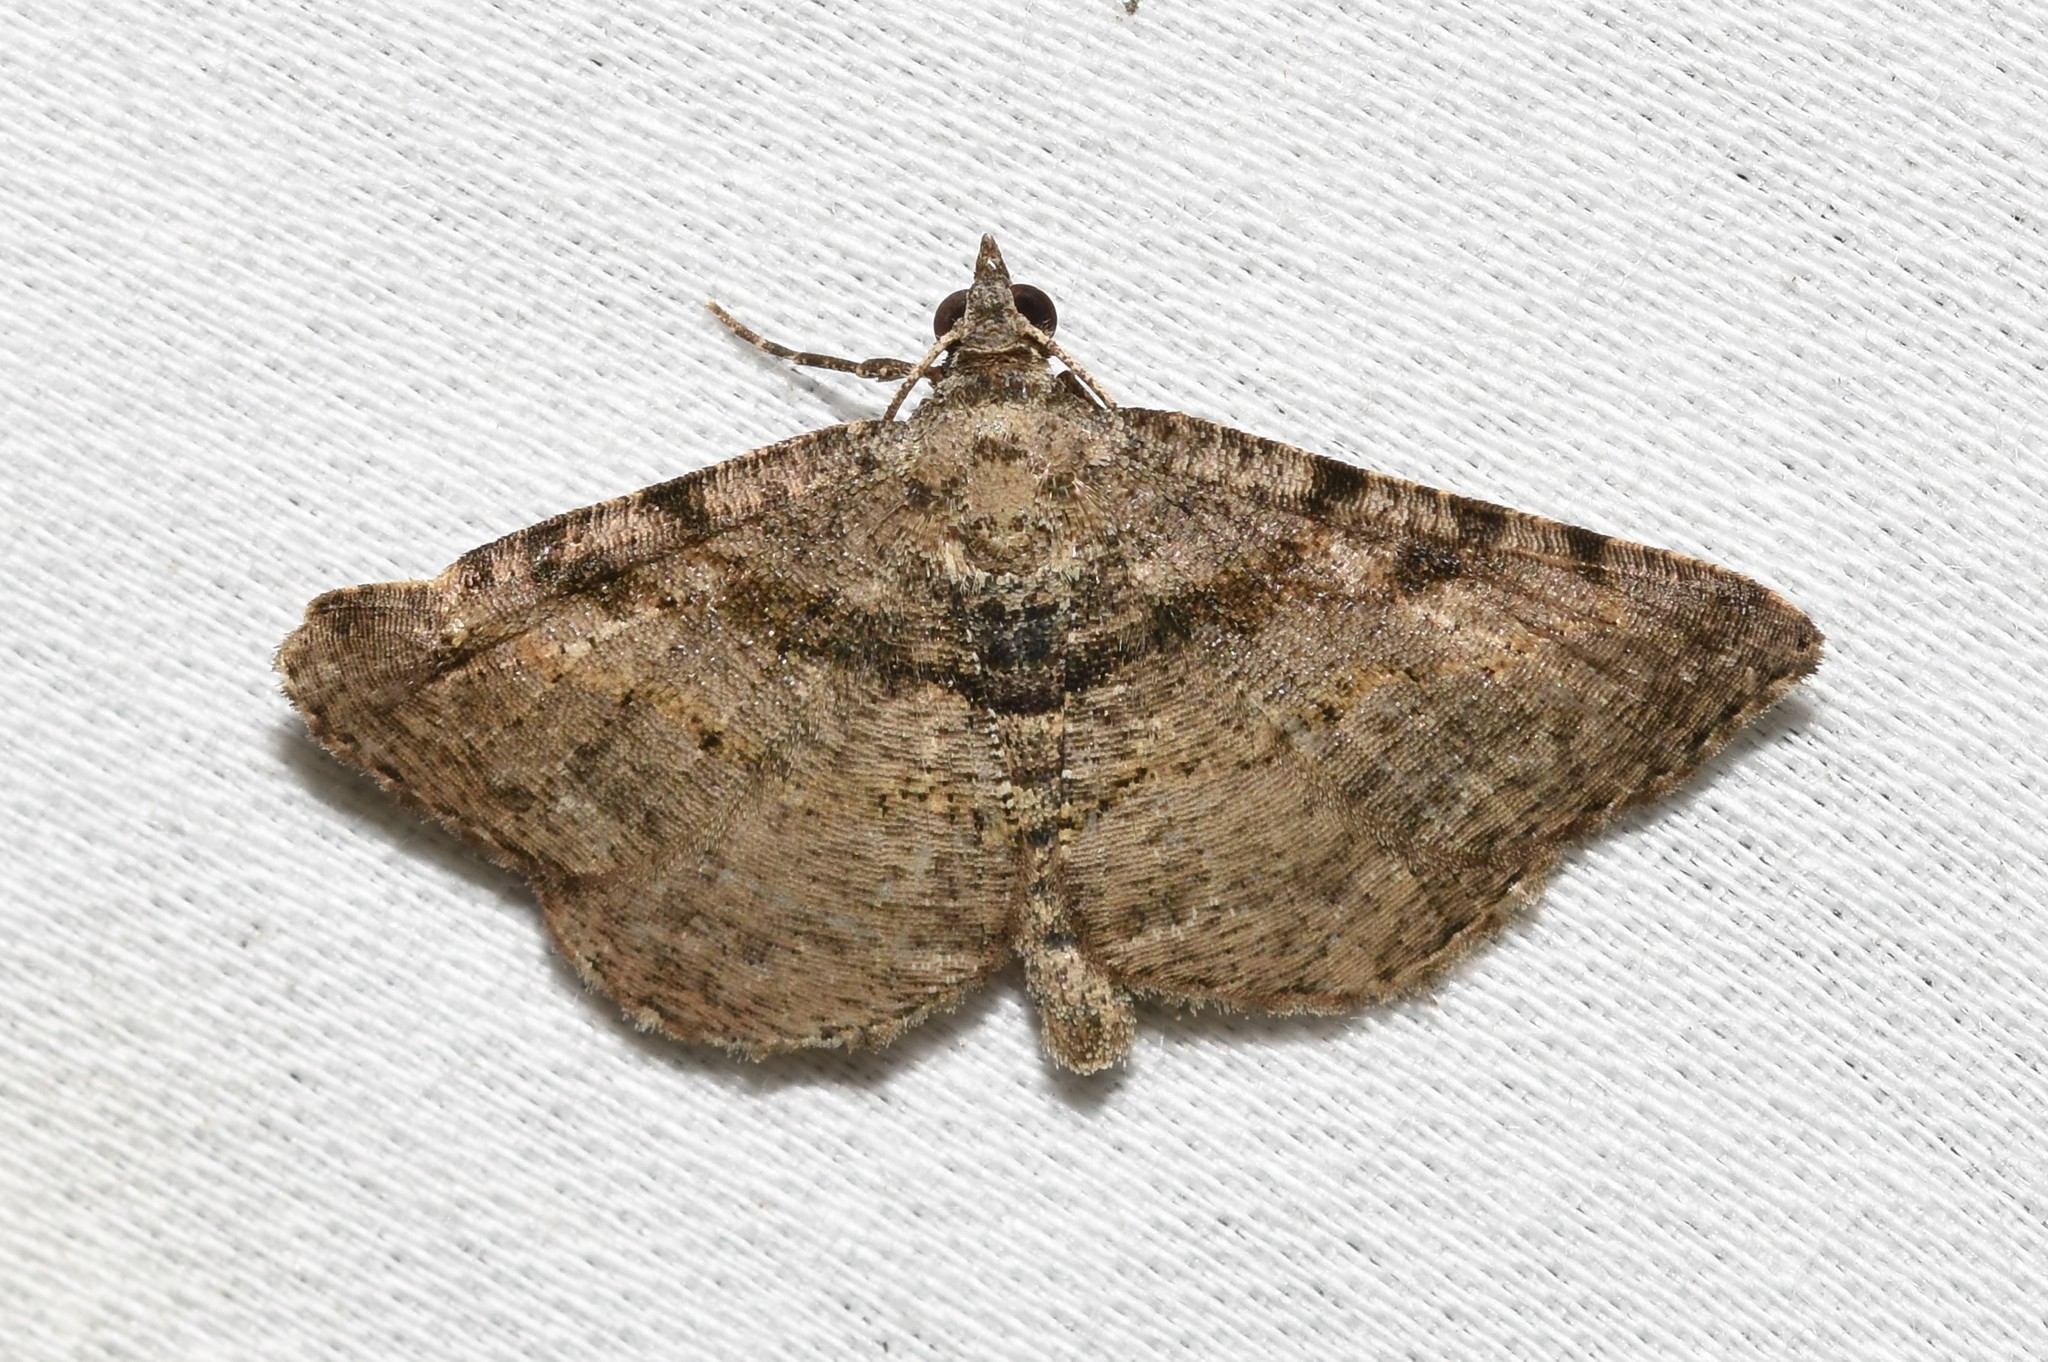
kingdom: Animalia
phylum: Arthropoda
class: Insecta
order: Lepidoptera
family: Geometridae
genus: Digrammia
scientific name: Digrammia gnophosaria
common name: Hollow-spotted angle
